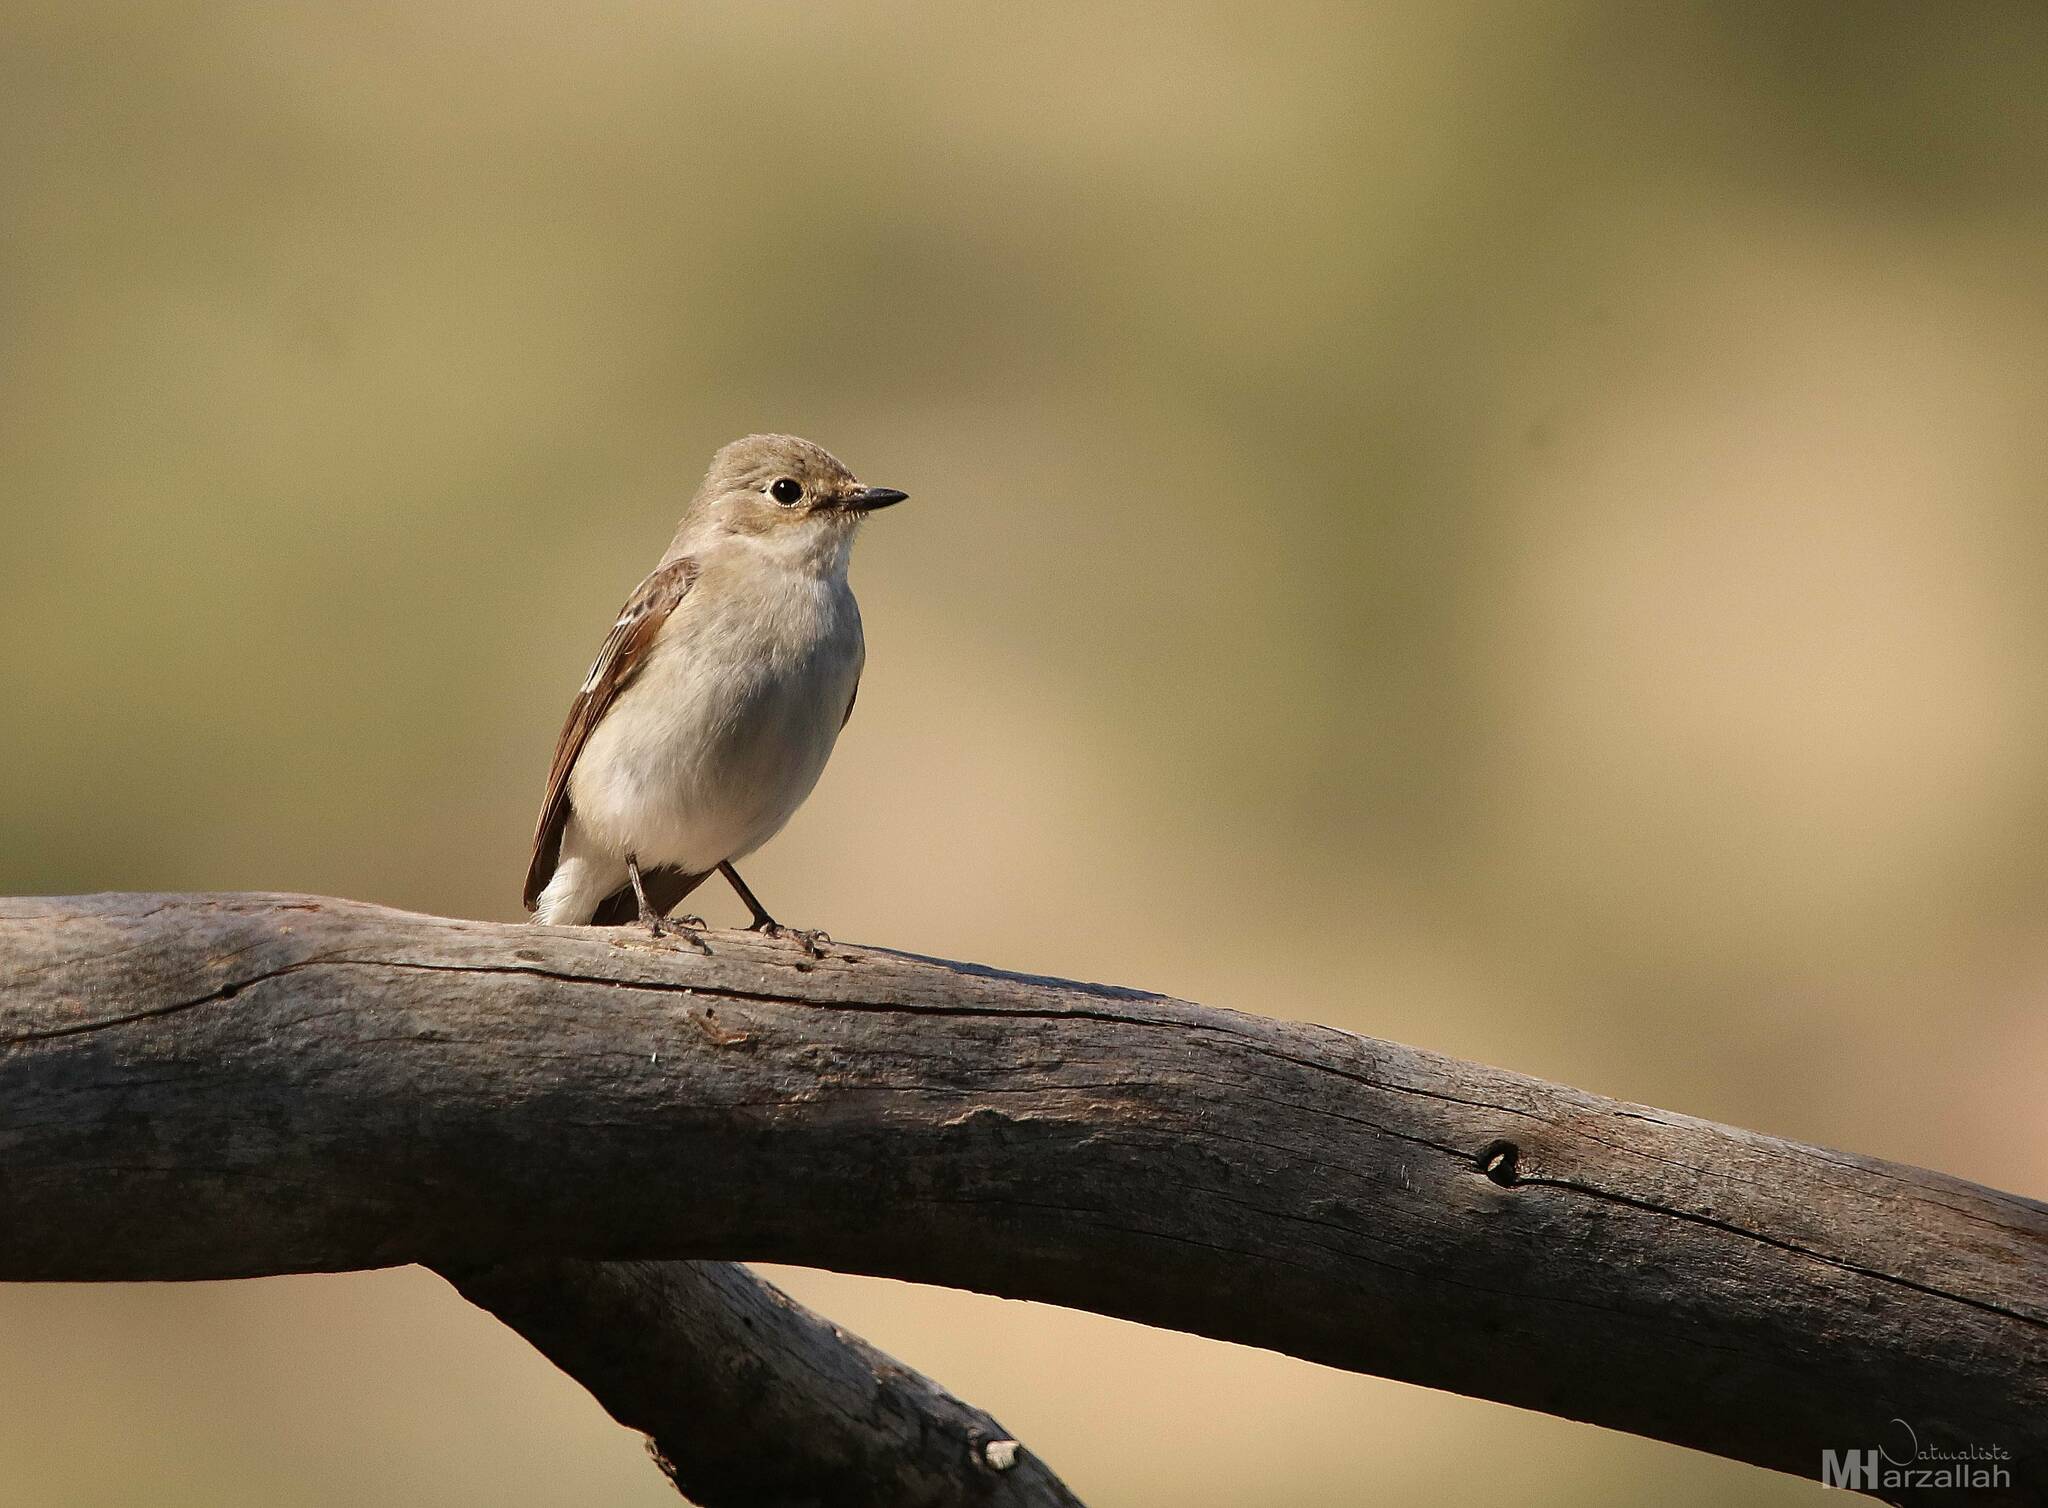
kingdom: Animalia
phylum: Chordata
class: Aves
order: Passeriformes
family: Muscicapidae
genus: Ficedula
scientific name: Ficedula speculigera
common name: Atlas pied flycatcher
